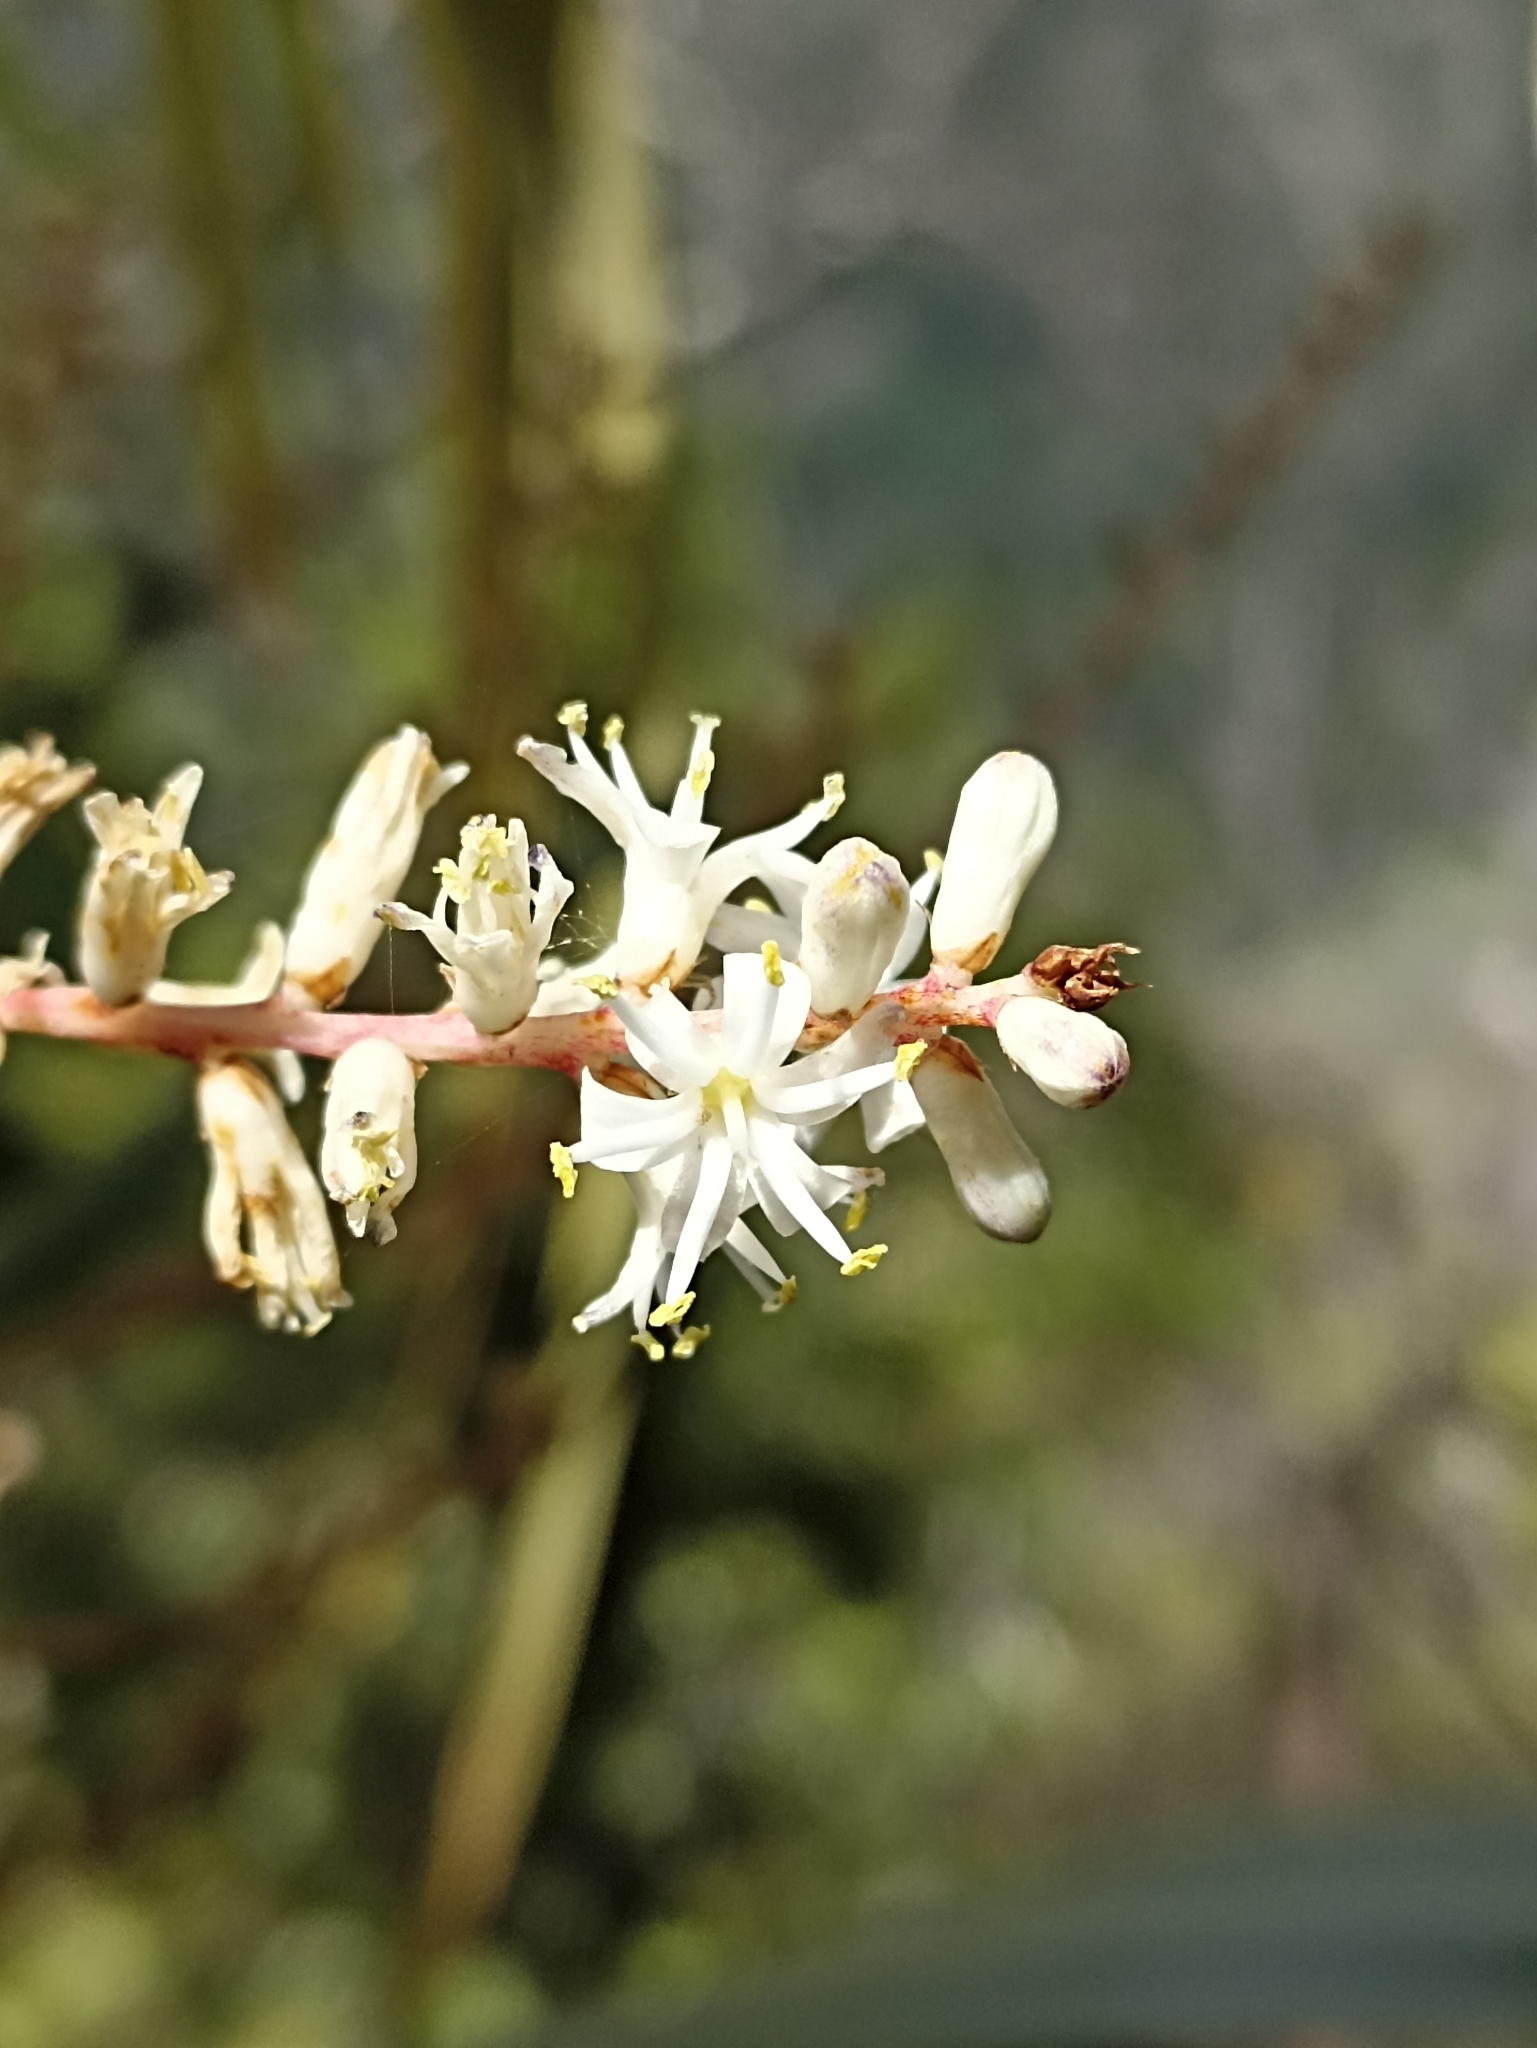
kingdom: Plantae
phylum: Tracheophyta
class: Liliopsida
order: Asparagales
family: Asparagaceae
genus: Cordyline
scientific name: Cordyline banksii
